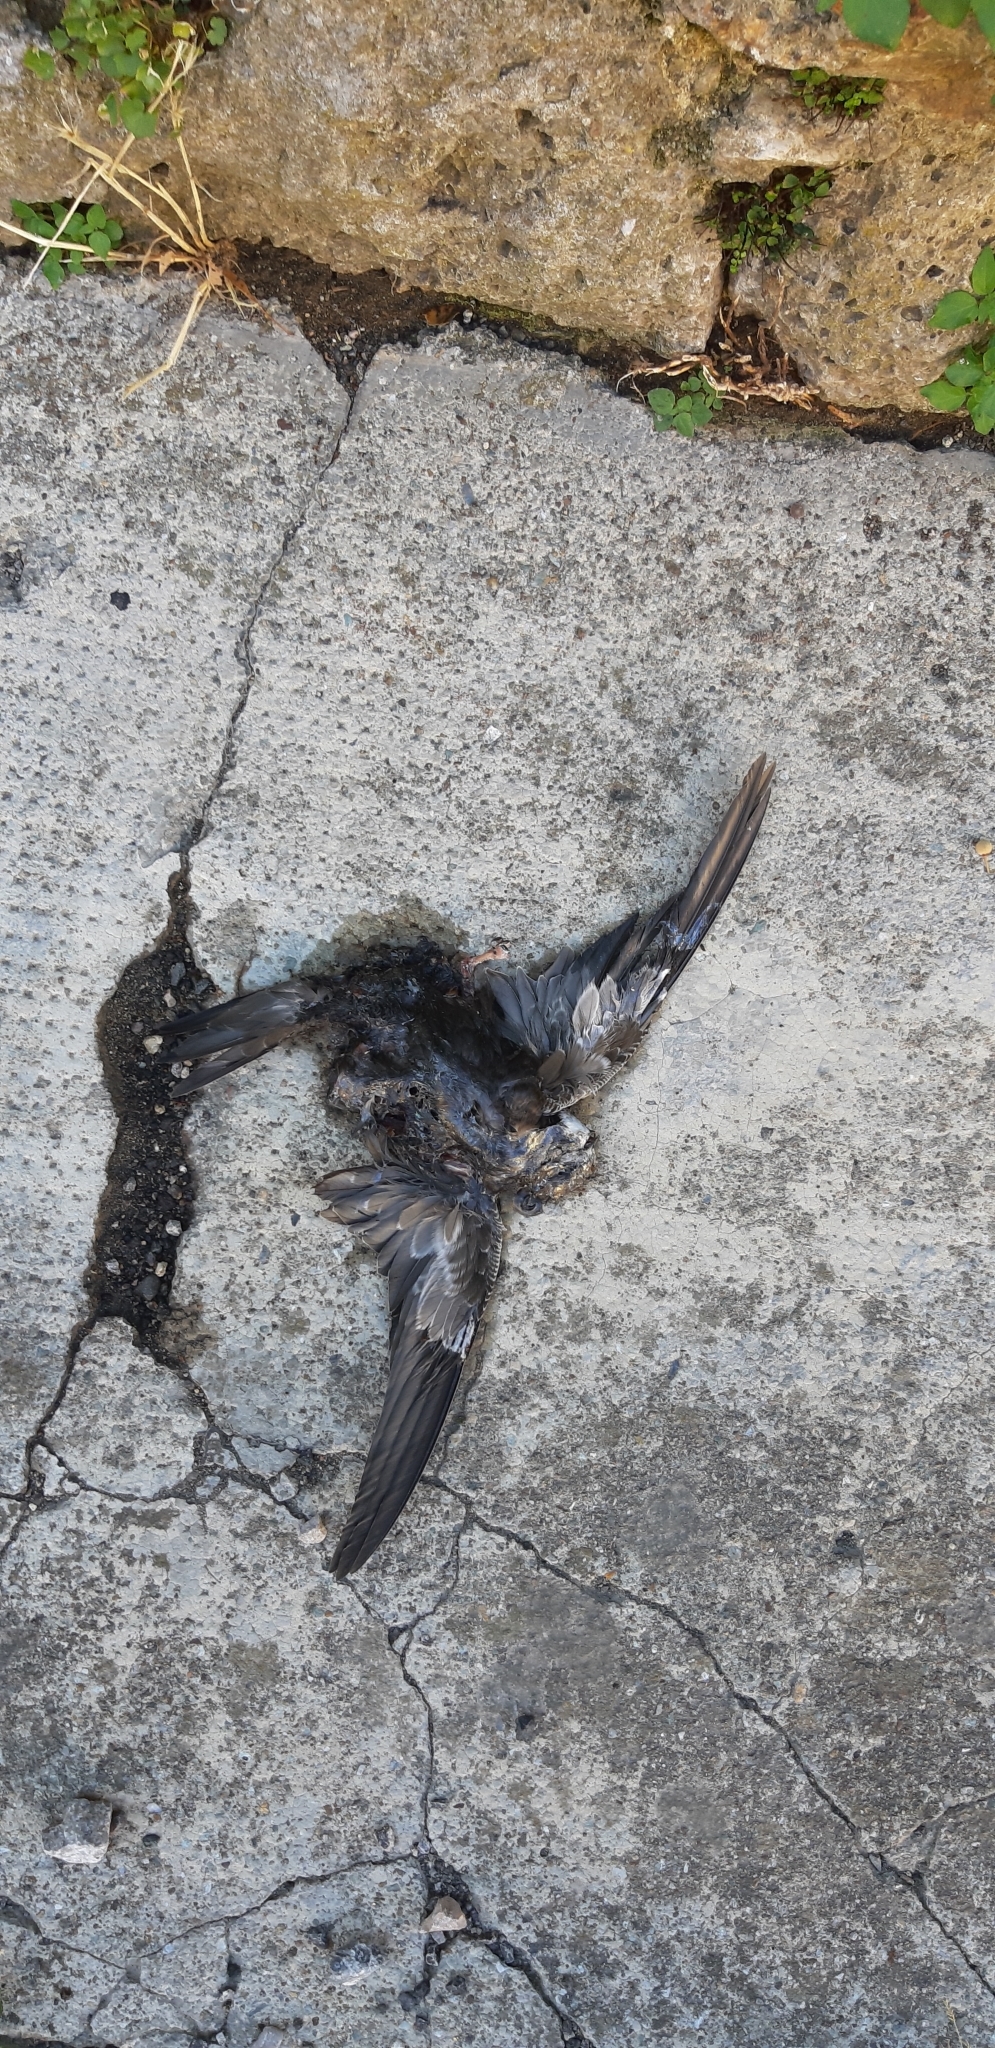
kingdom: Animalia
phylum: Chordata
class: Aves
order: Apodiformes
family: Apodidae
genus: Apus
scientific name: Apus apus
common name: Common swift
